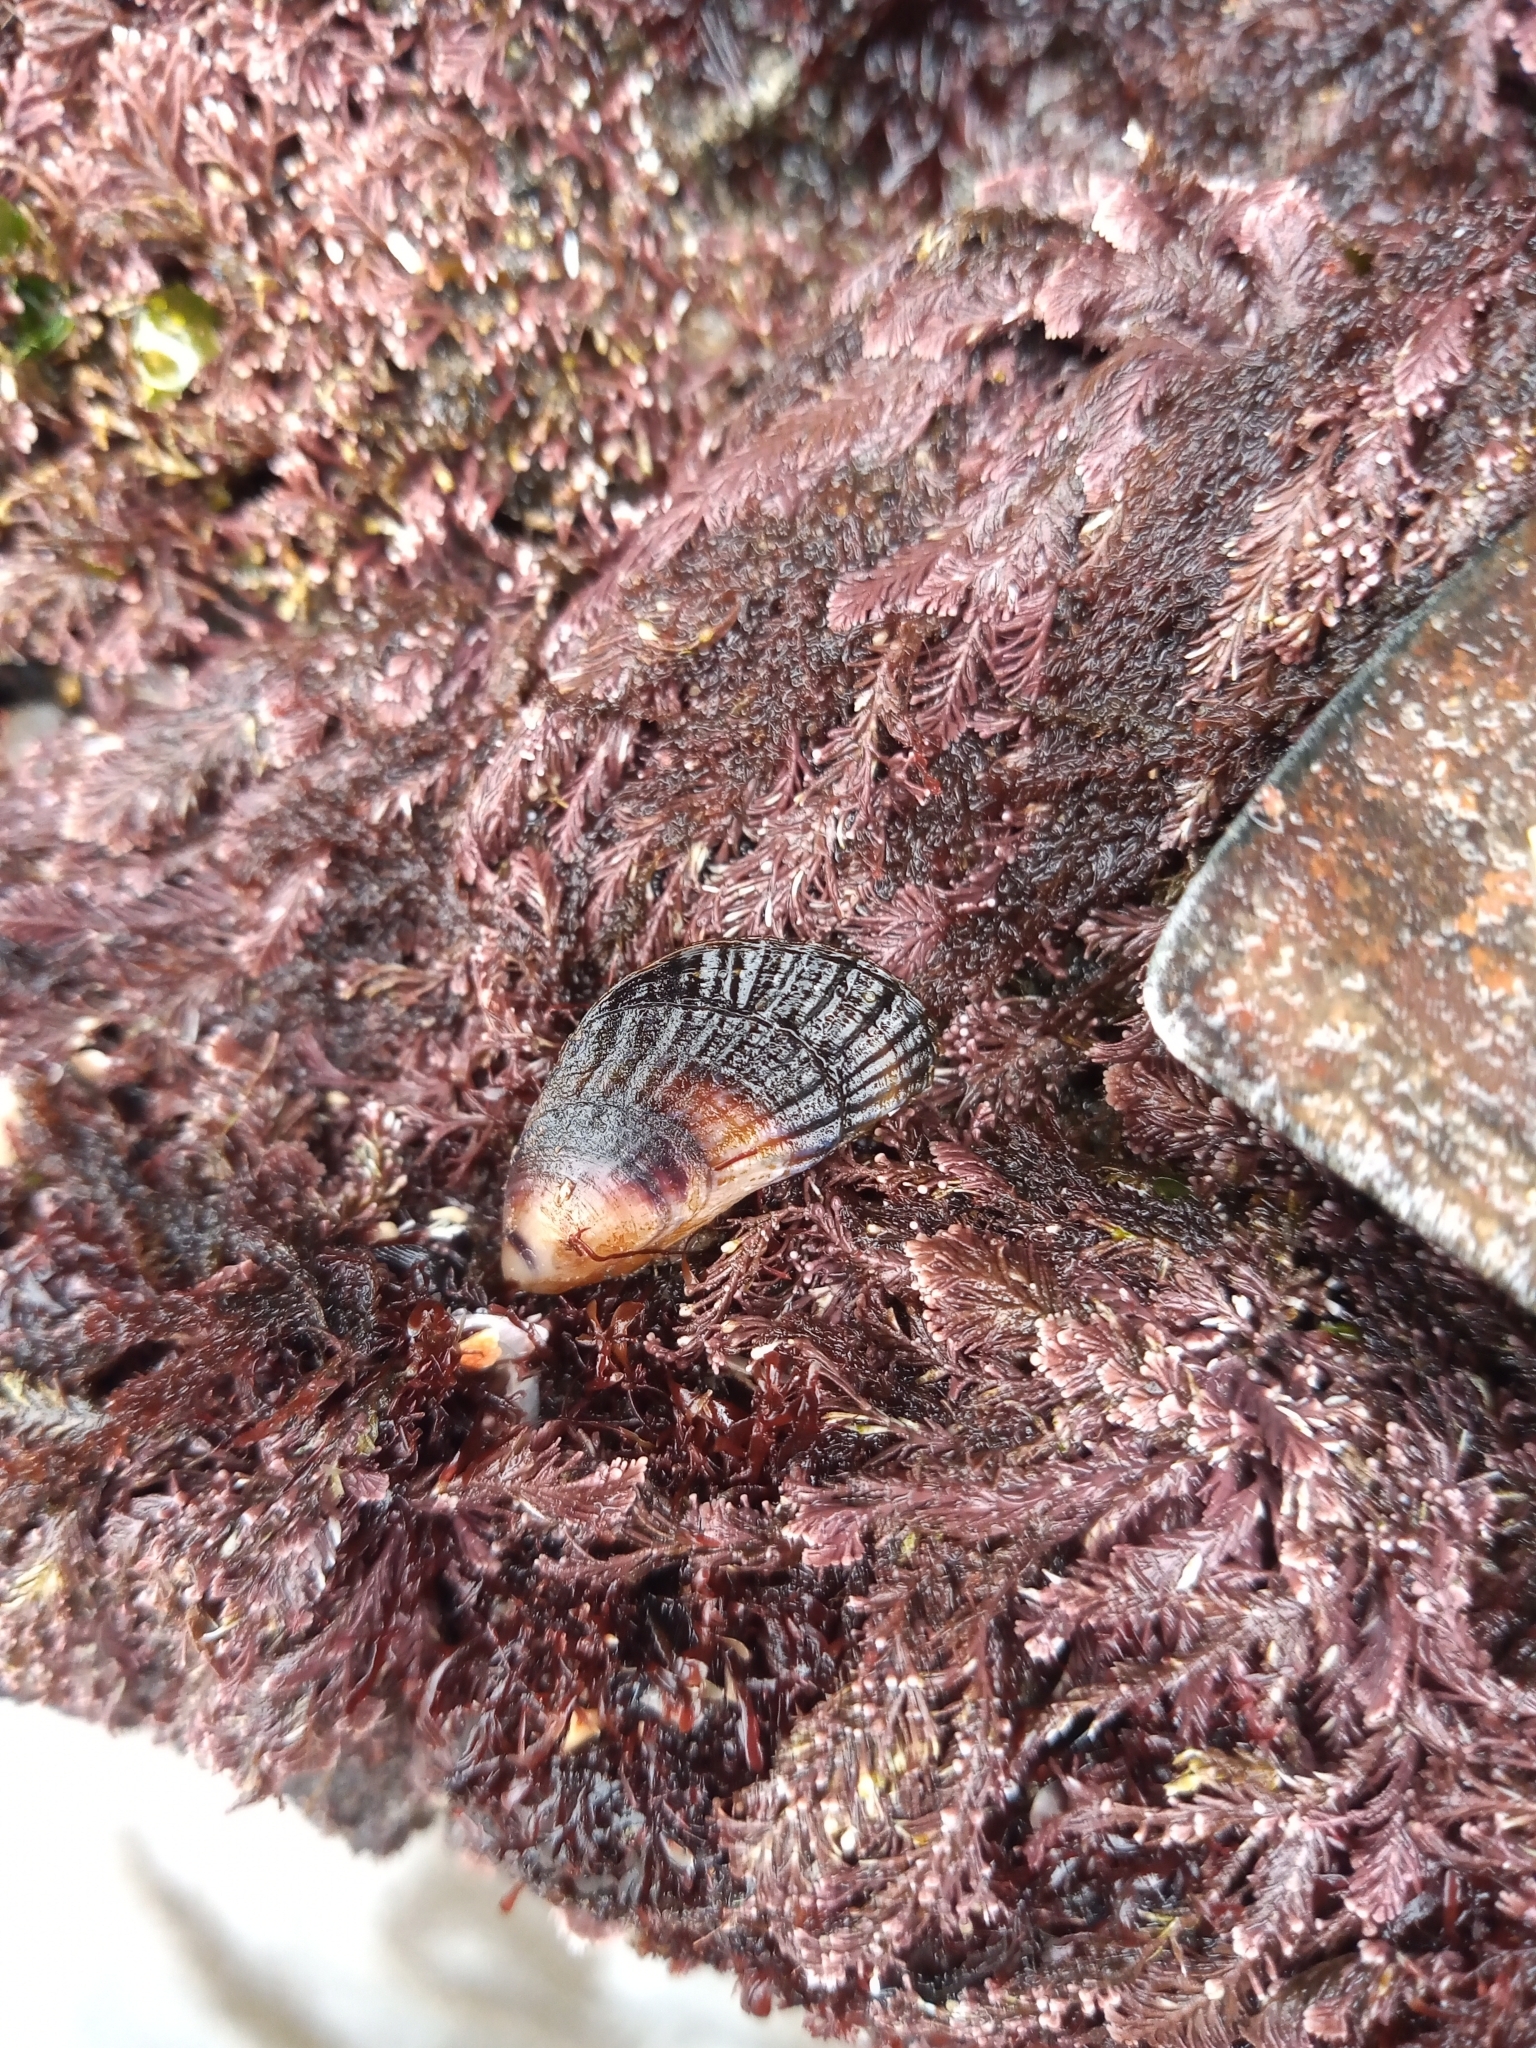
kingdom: Animalia
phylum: Mollusca
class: Bivalvia
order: Mytilida
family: Mytilidae
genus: Aulacomya
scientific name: Aulacomya atra
